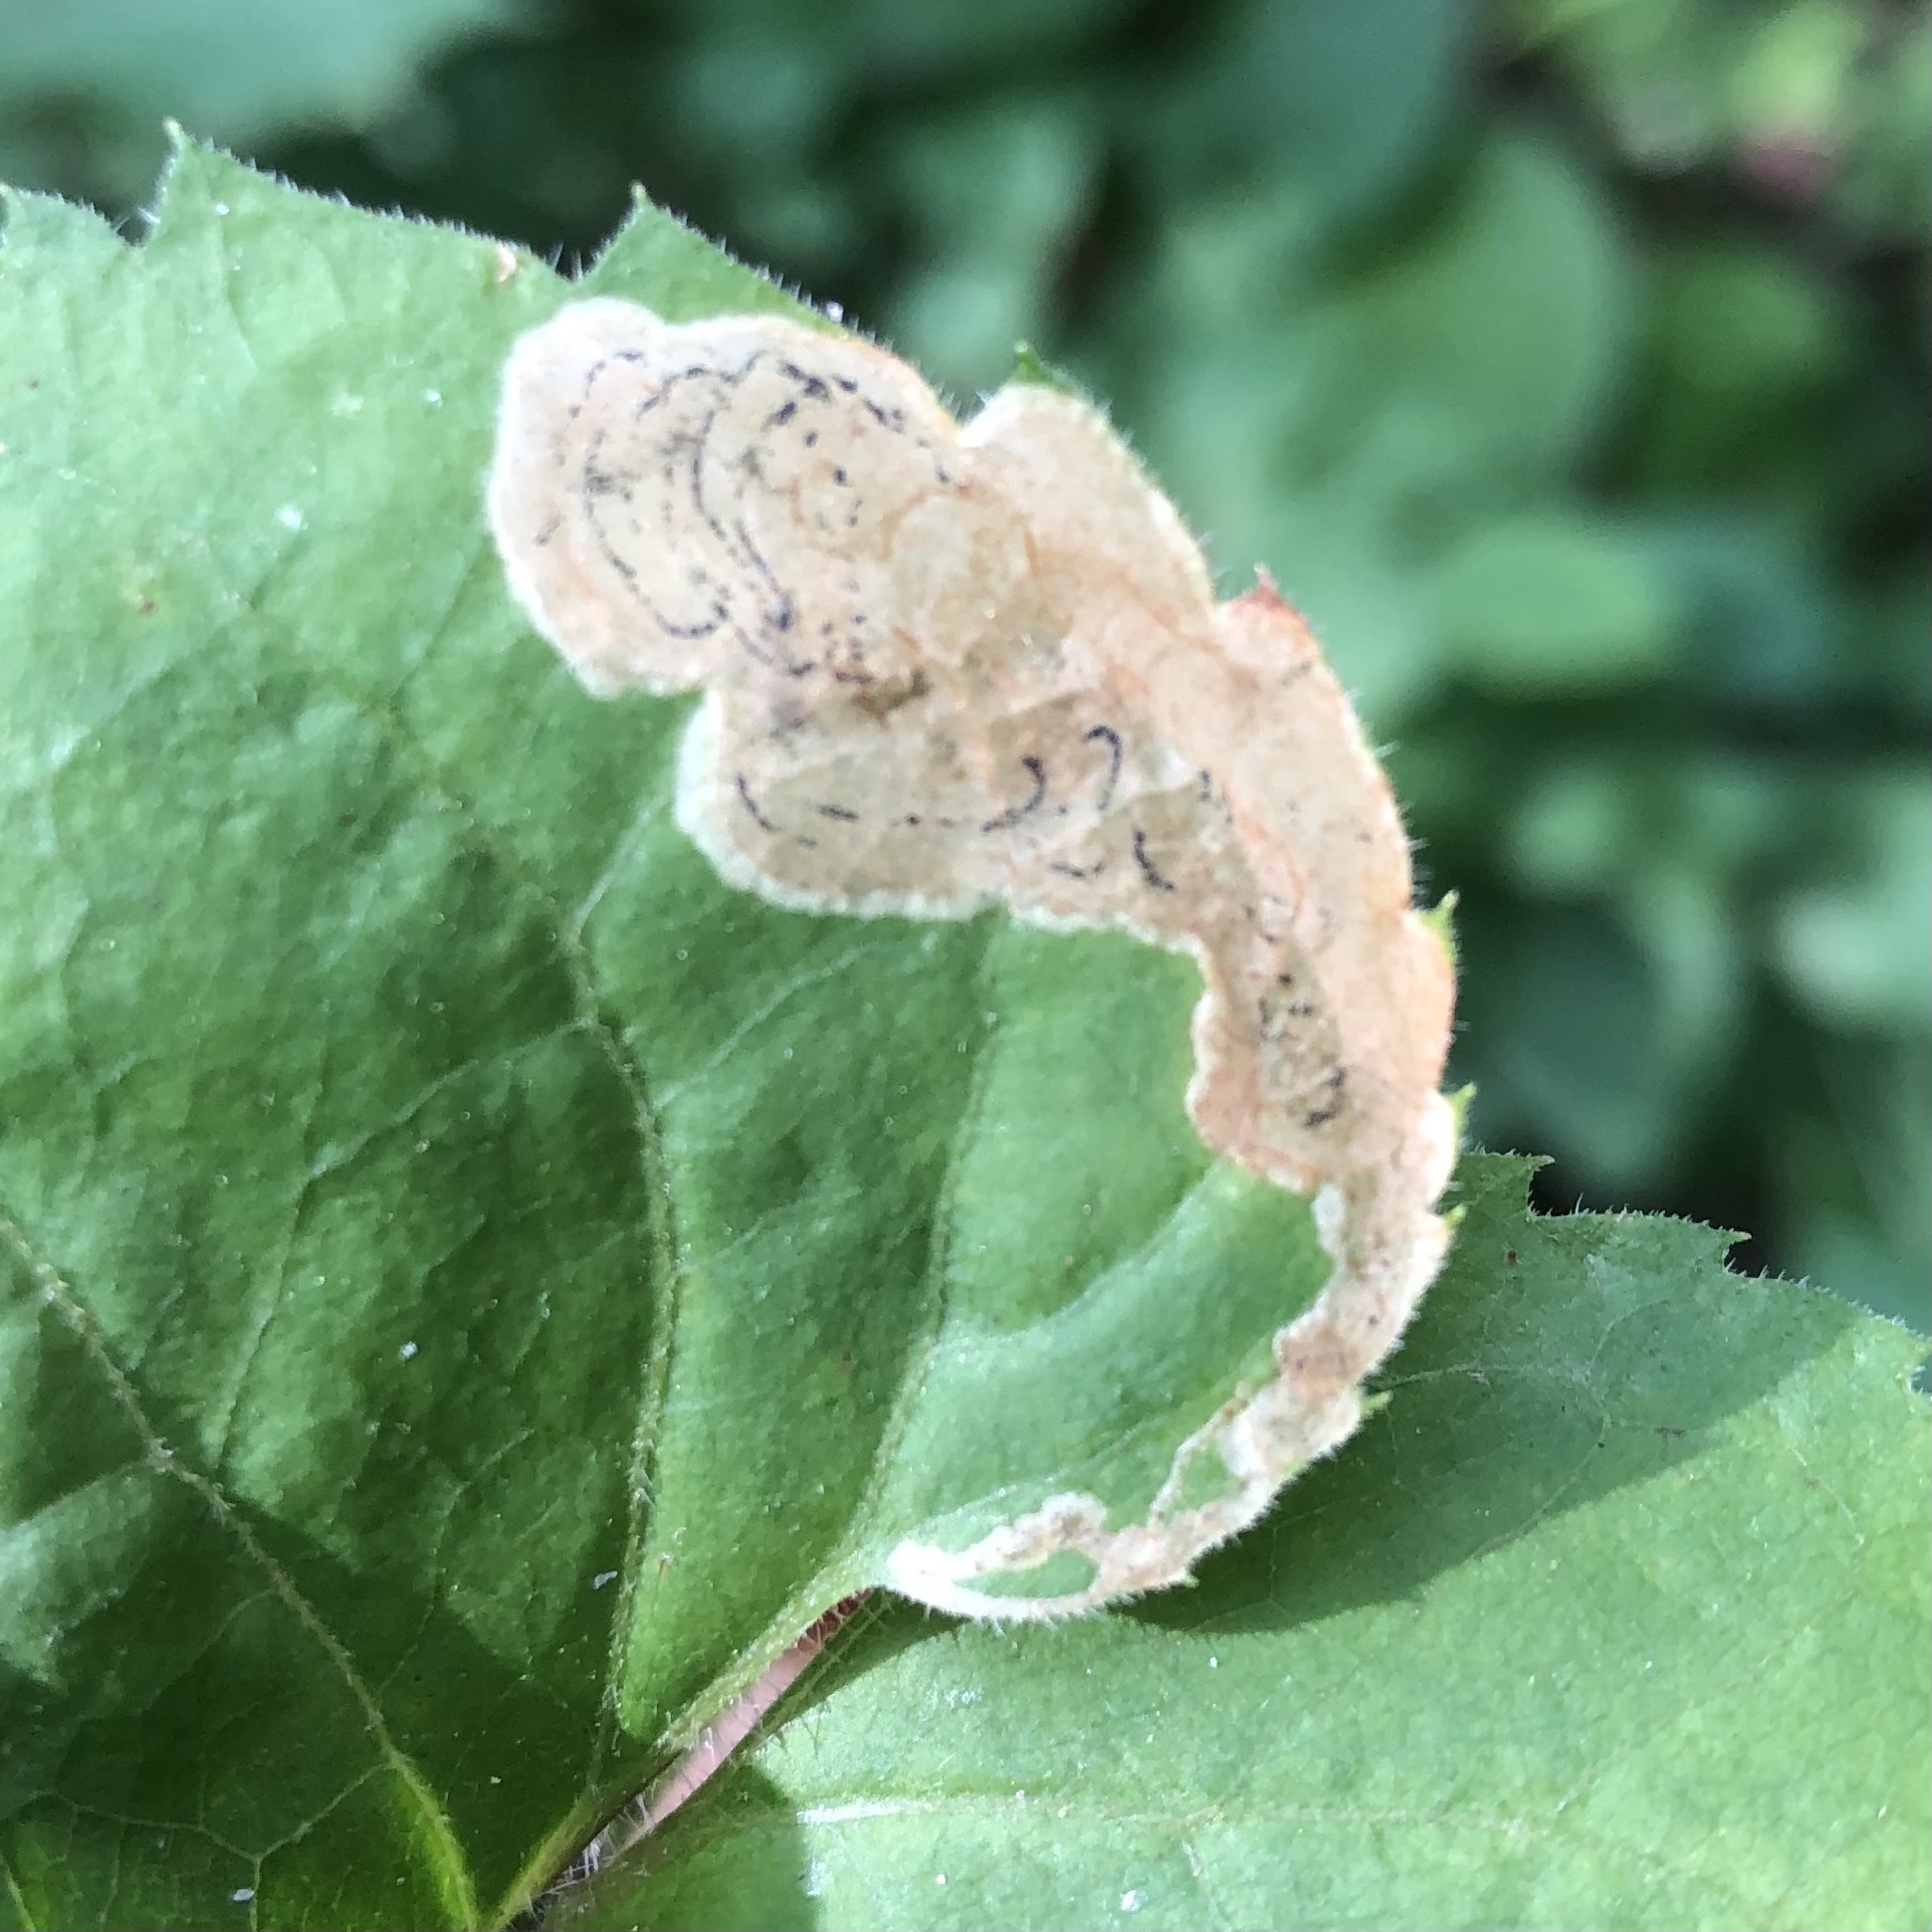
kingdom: Animalia
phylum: Arthropoda
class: Insecta
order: Diptera
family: Agromyzidae
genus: Liriomyza
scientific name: Liriomyza limopsis
